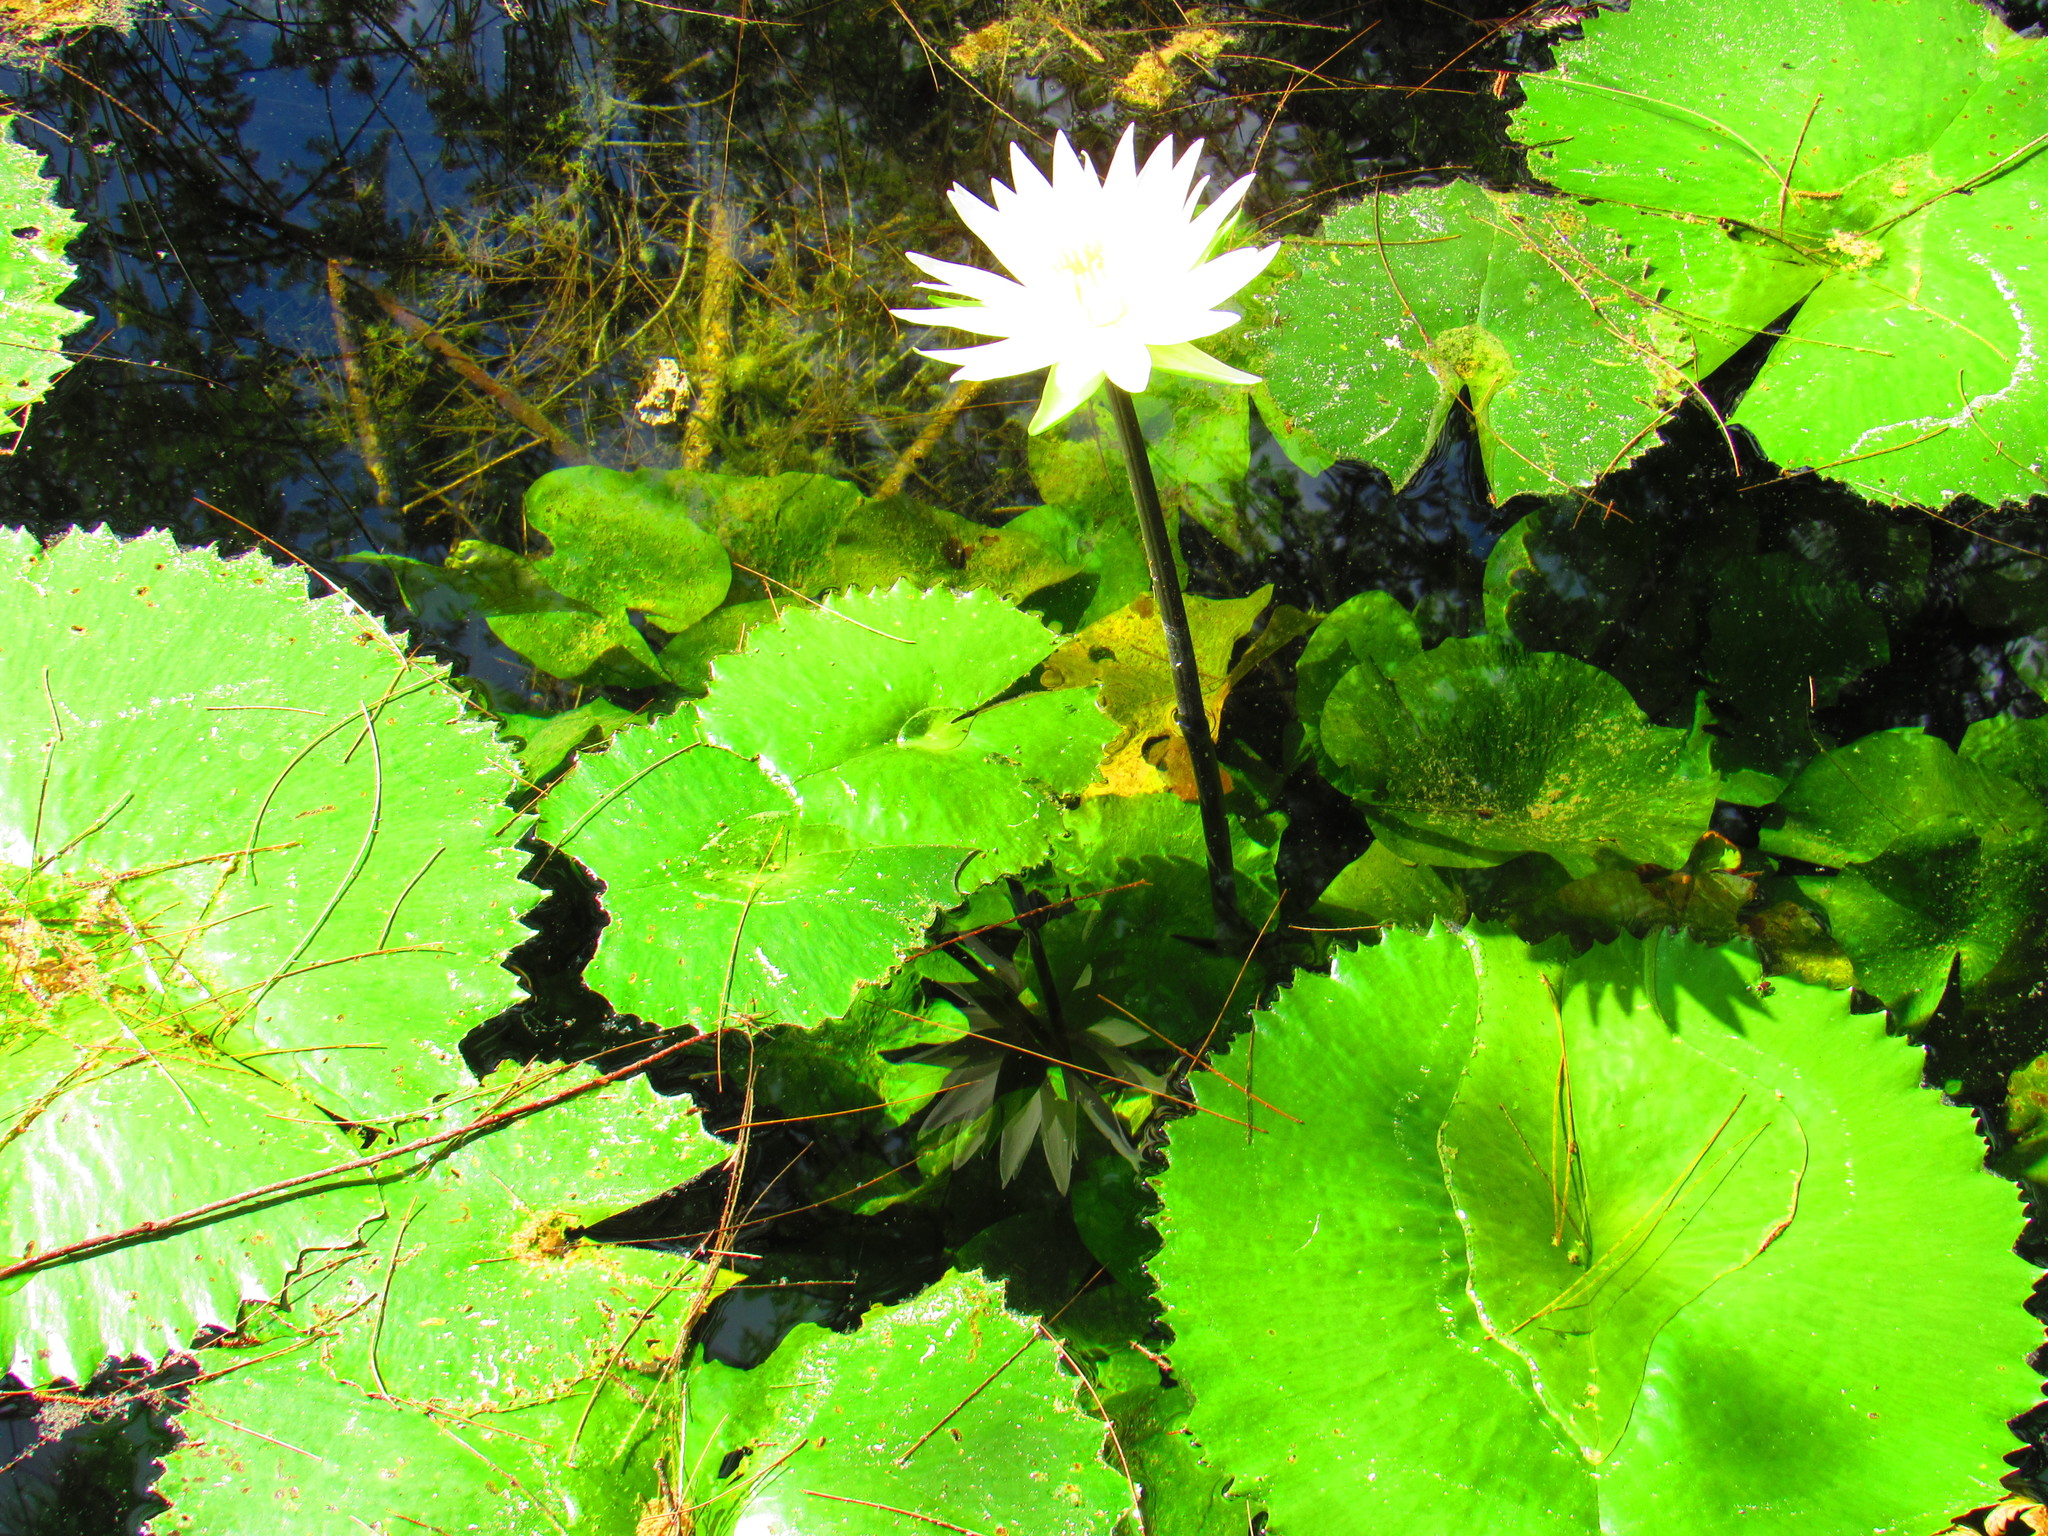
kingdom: Plantae
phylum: Tracheophyta
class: Magnoliopsida
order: Nymphaeales
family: Nymphaeaceae
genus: Nymphaea
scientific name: Nymphaea ampla
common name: Dotleaf waterlily
